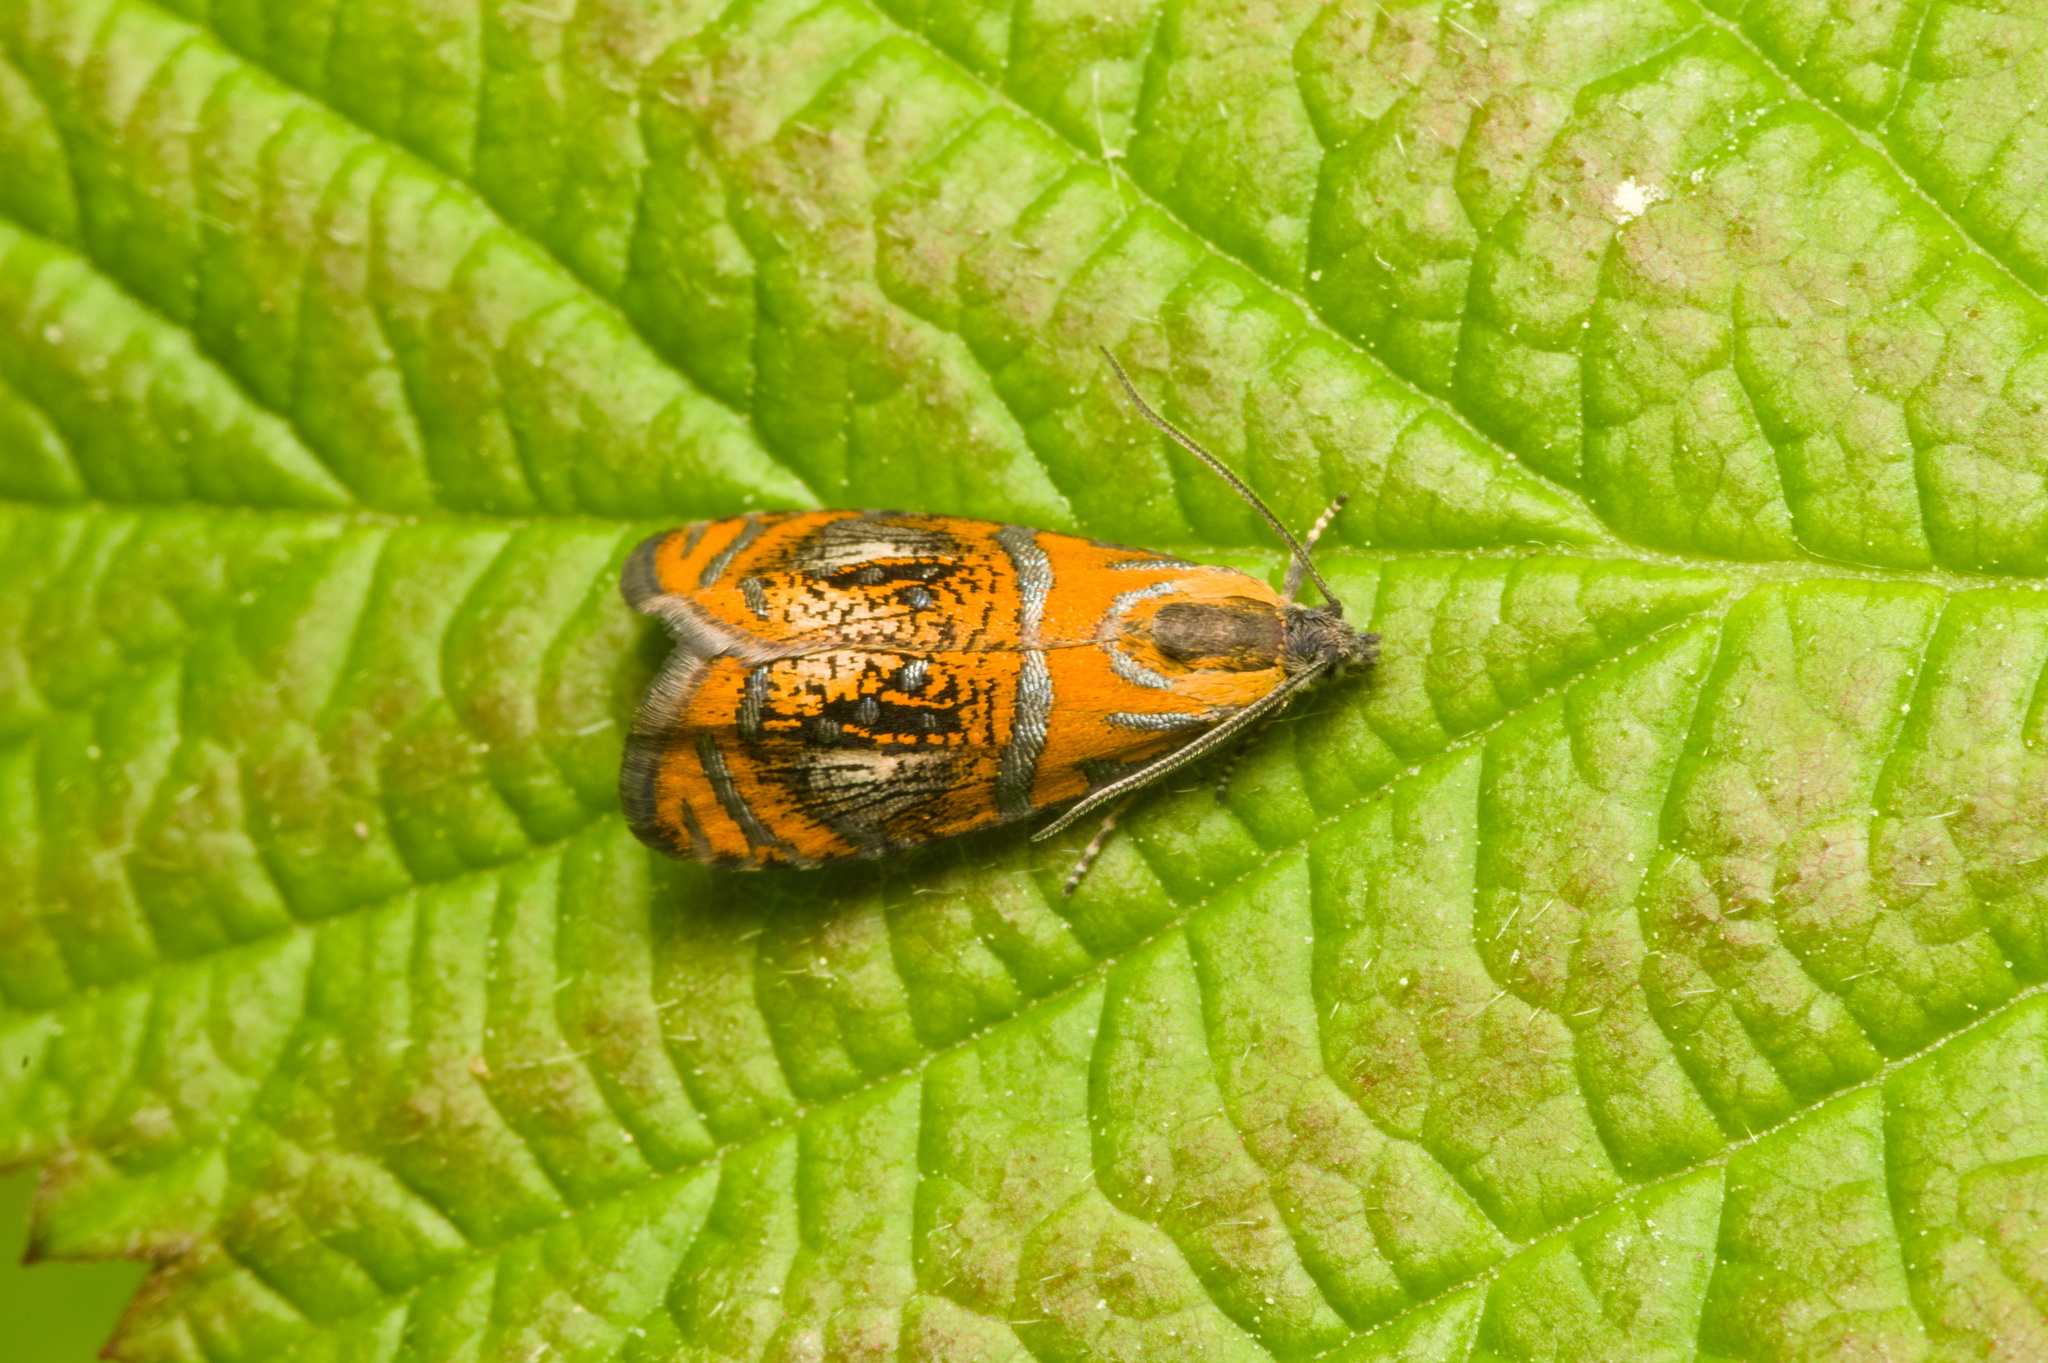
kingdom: Animalia
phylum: Arthropoda
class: Insecta
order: Lepidoptera
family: Tortricidae
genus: Olethreutes
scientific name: Olethreutes arcuella
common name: Arched marble
